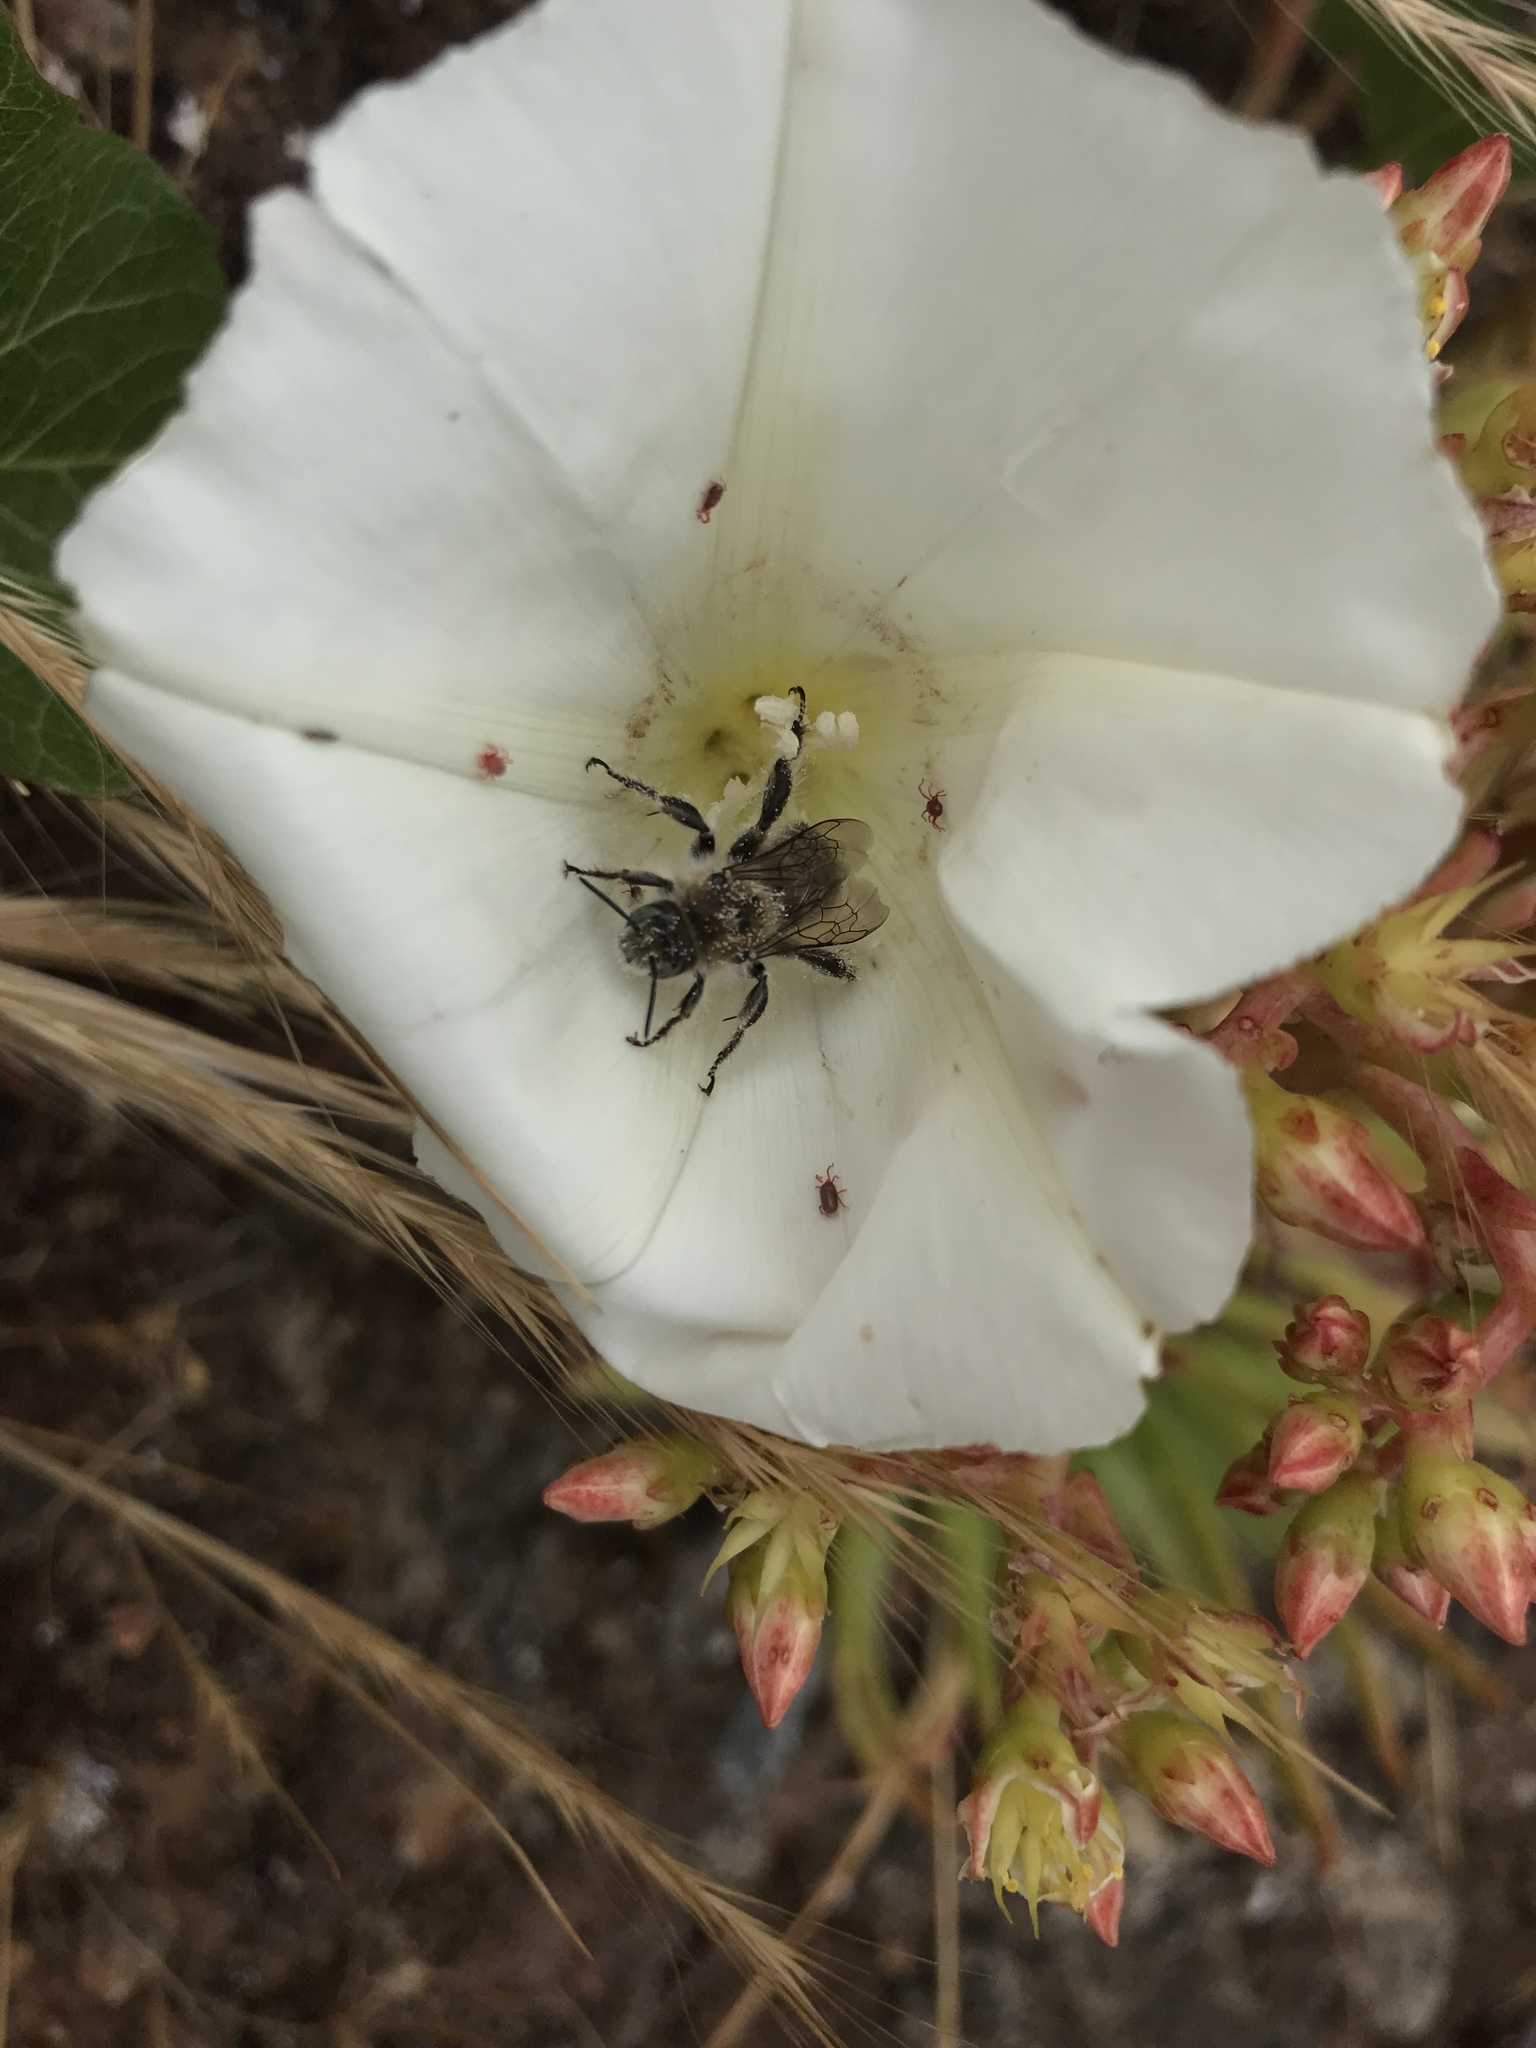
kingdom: Animalia
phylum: Arthropoda
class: Insecta
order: Hymenoptera
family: Apidae
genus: Diadasia
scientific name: Diadasia bituberculata
